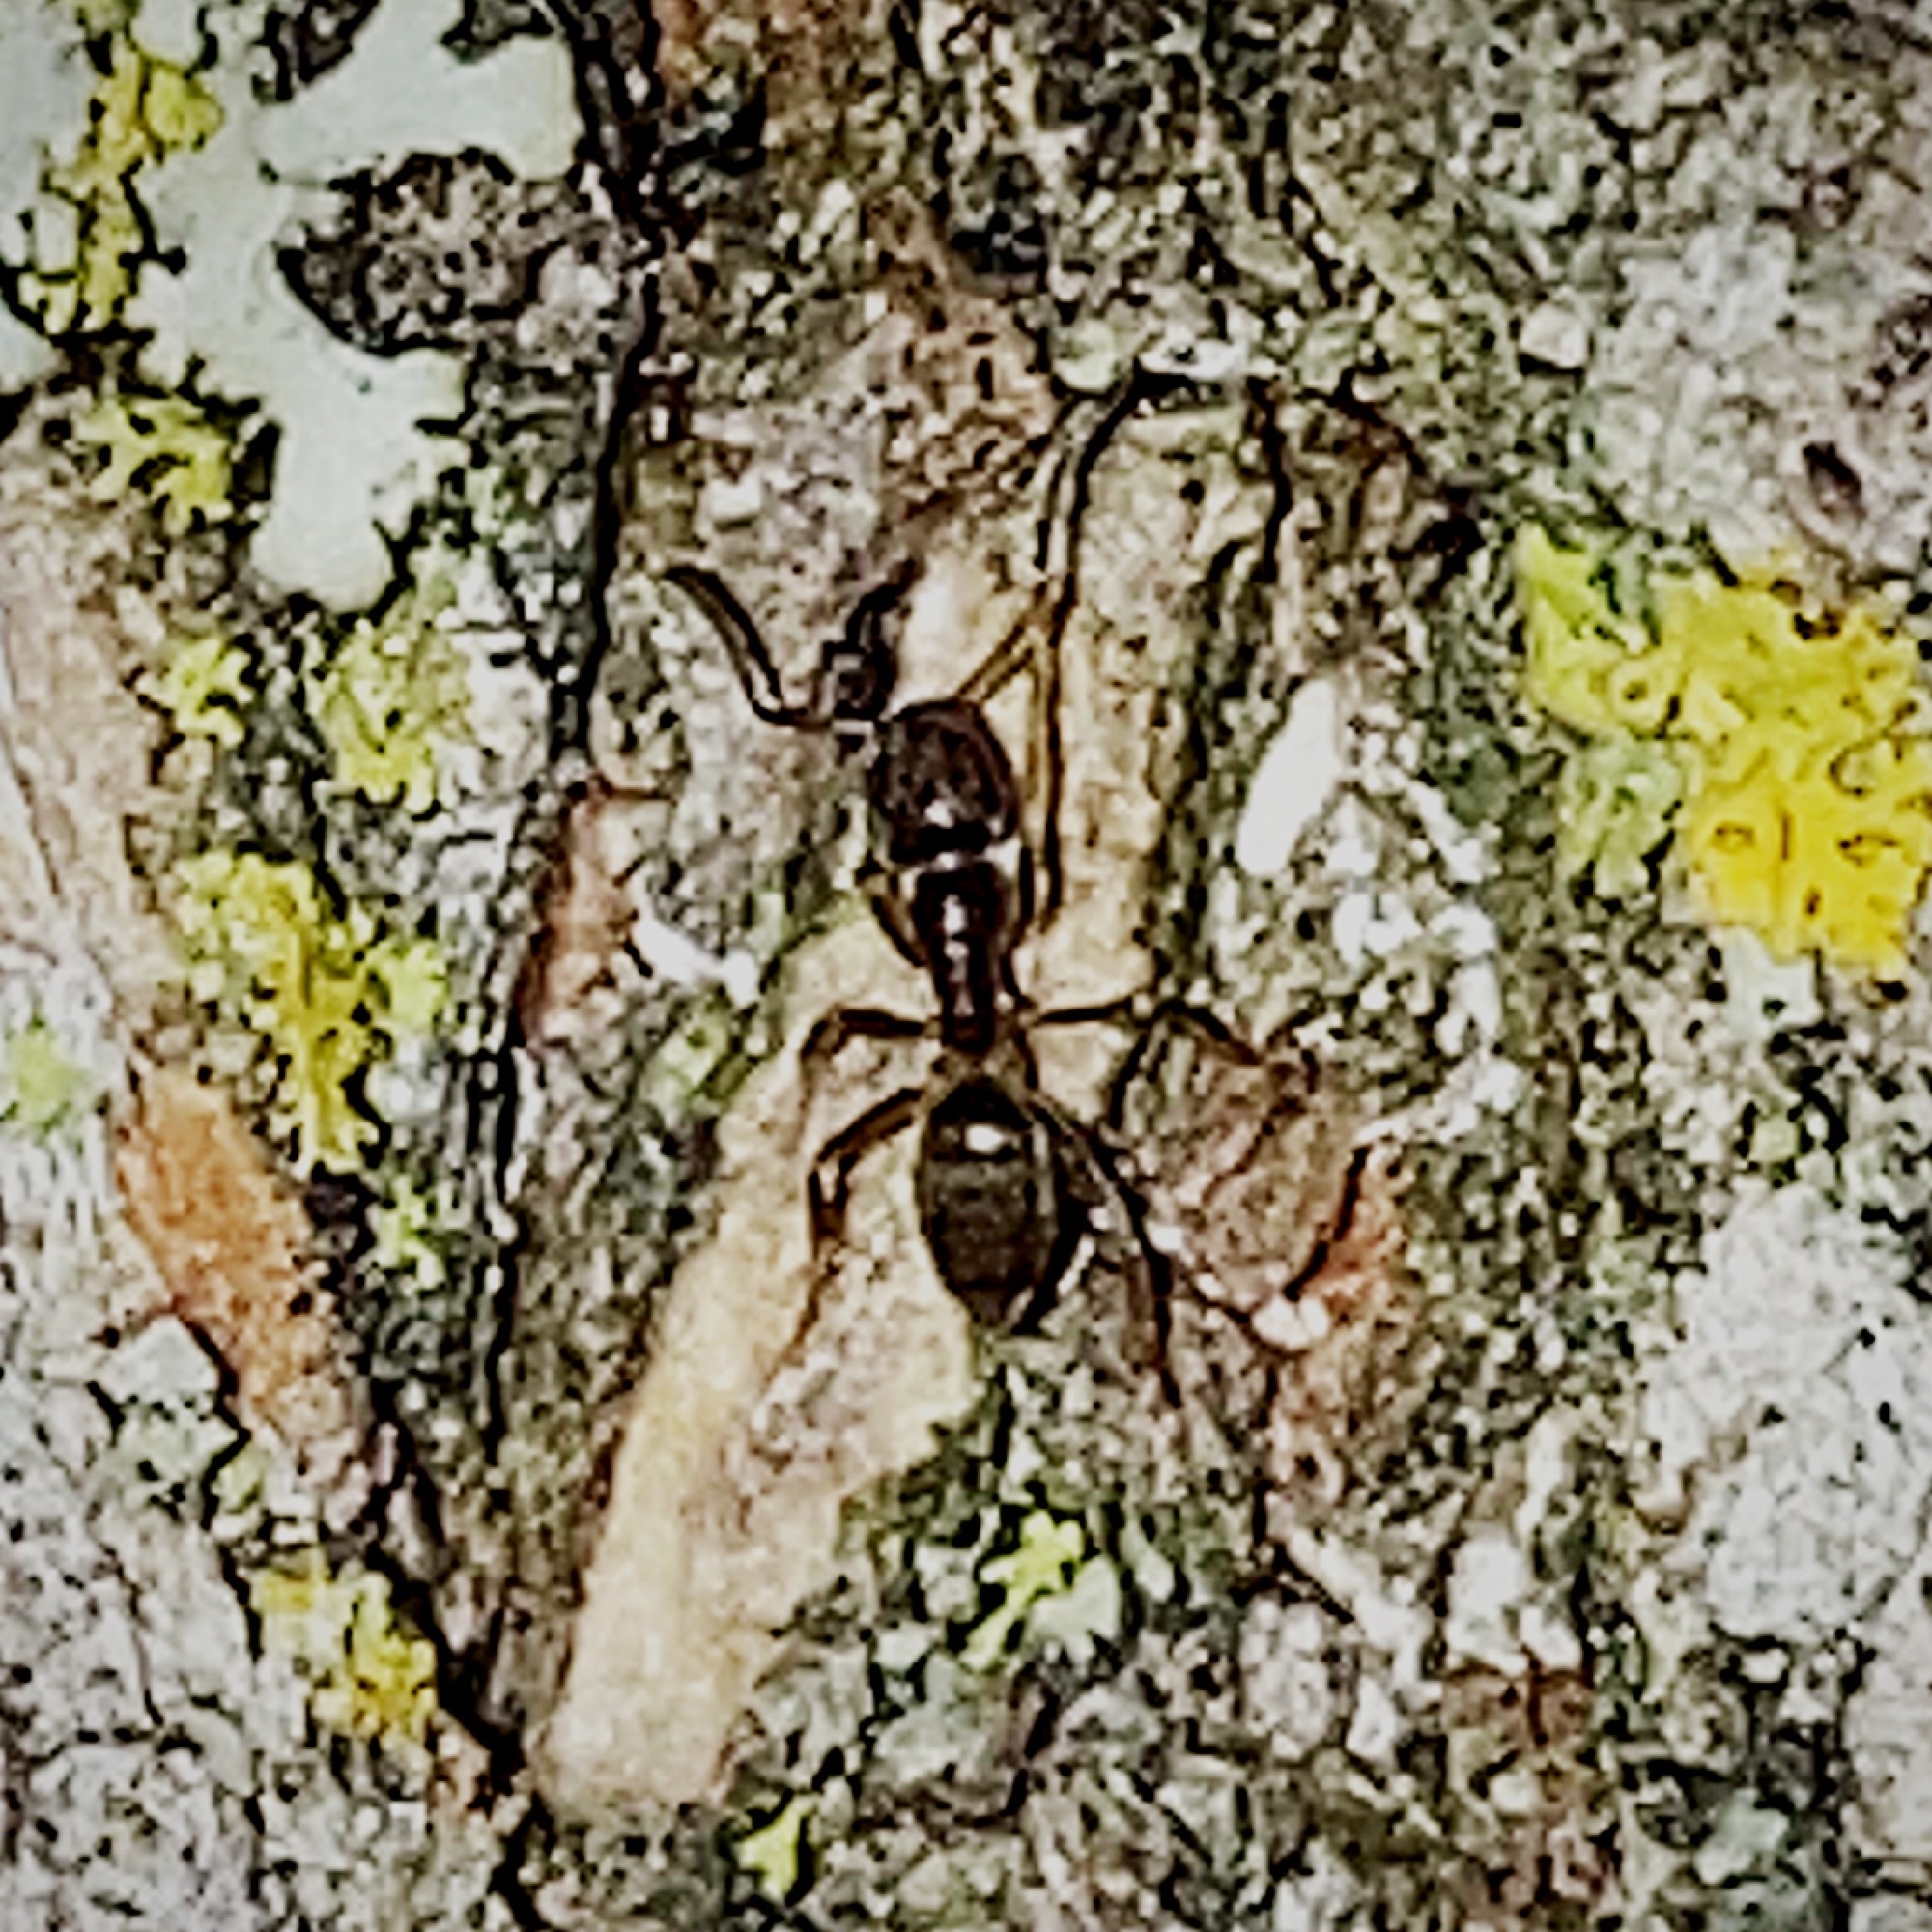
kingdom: Animalia
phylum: Arthropoda
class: Insecta
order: Hymenoptera
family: Formicidae
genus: Tapinoma
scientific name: Tapinoma sessile
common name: Odorous house ant
